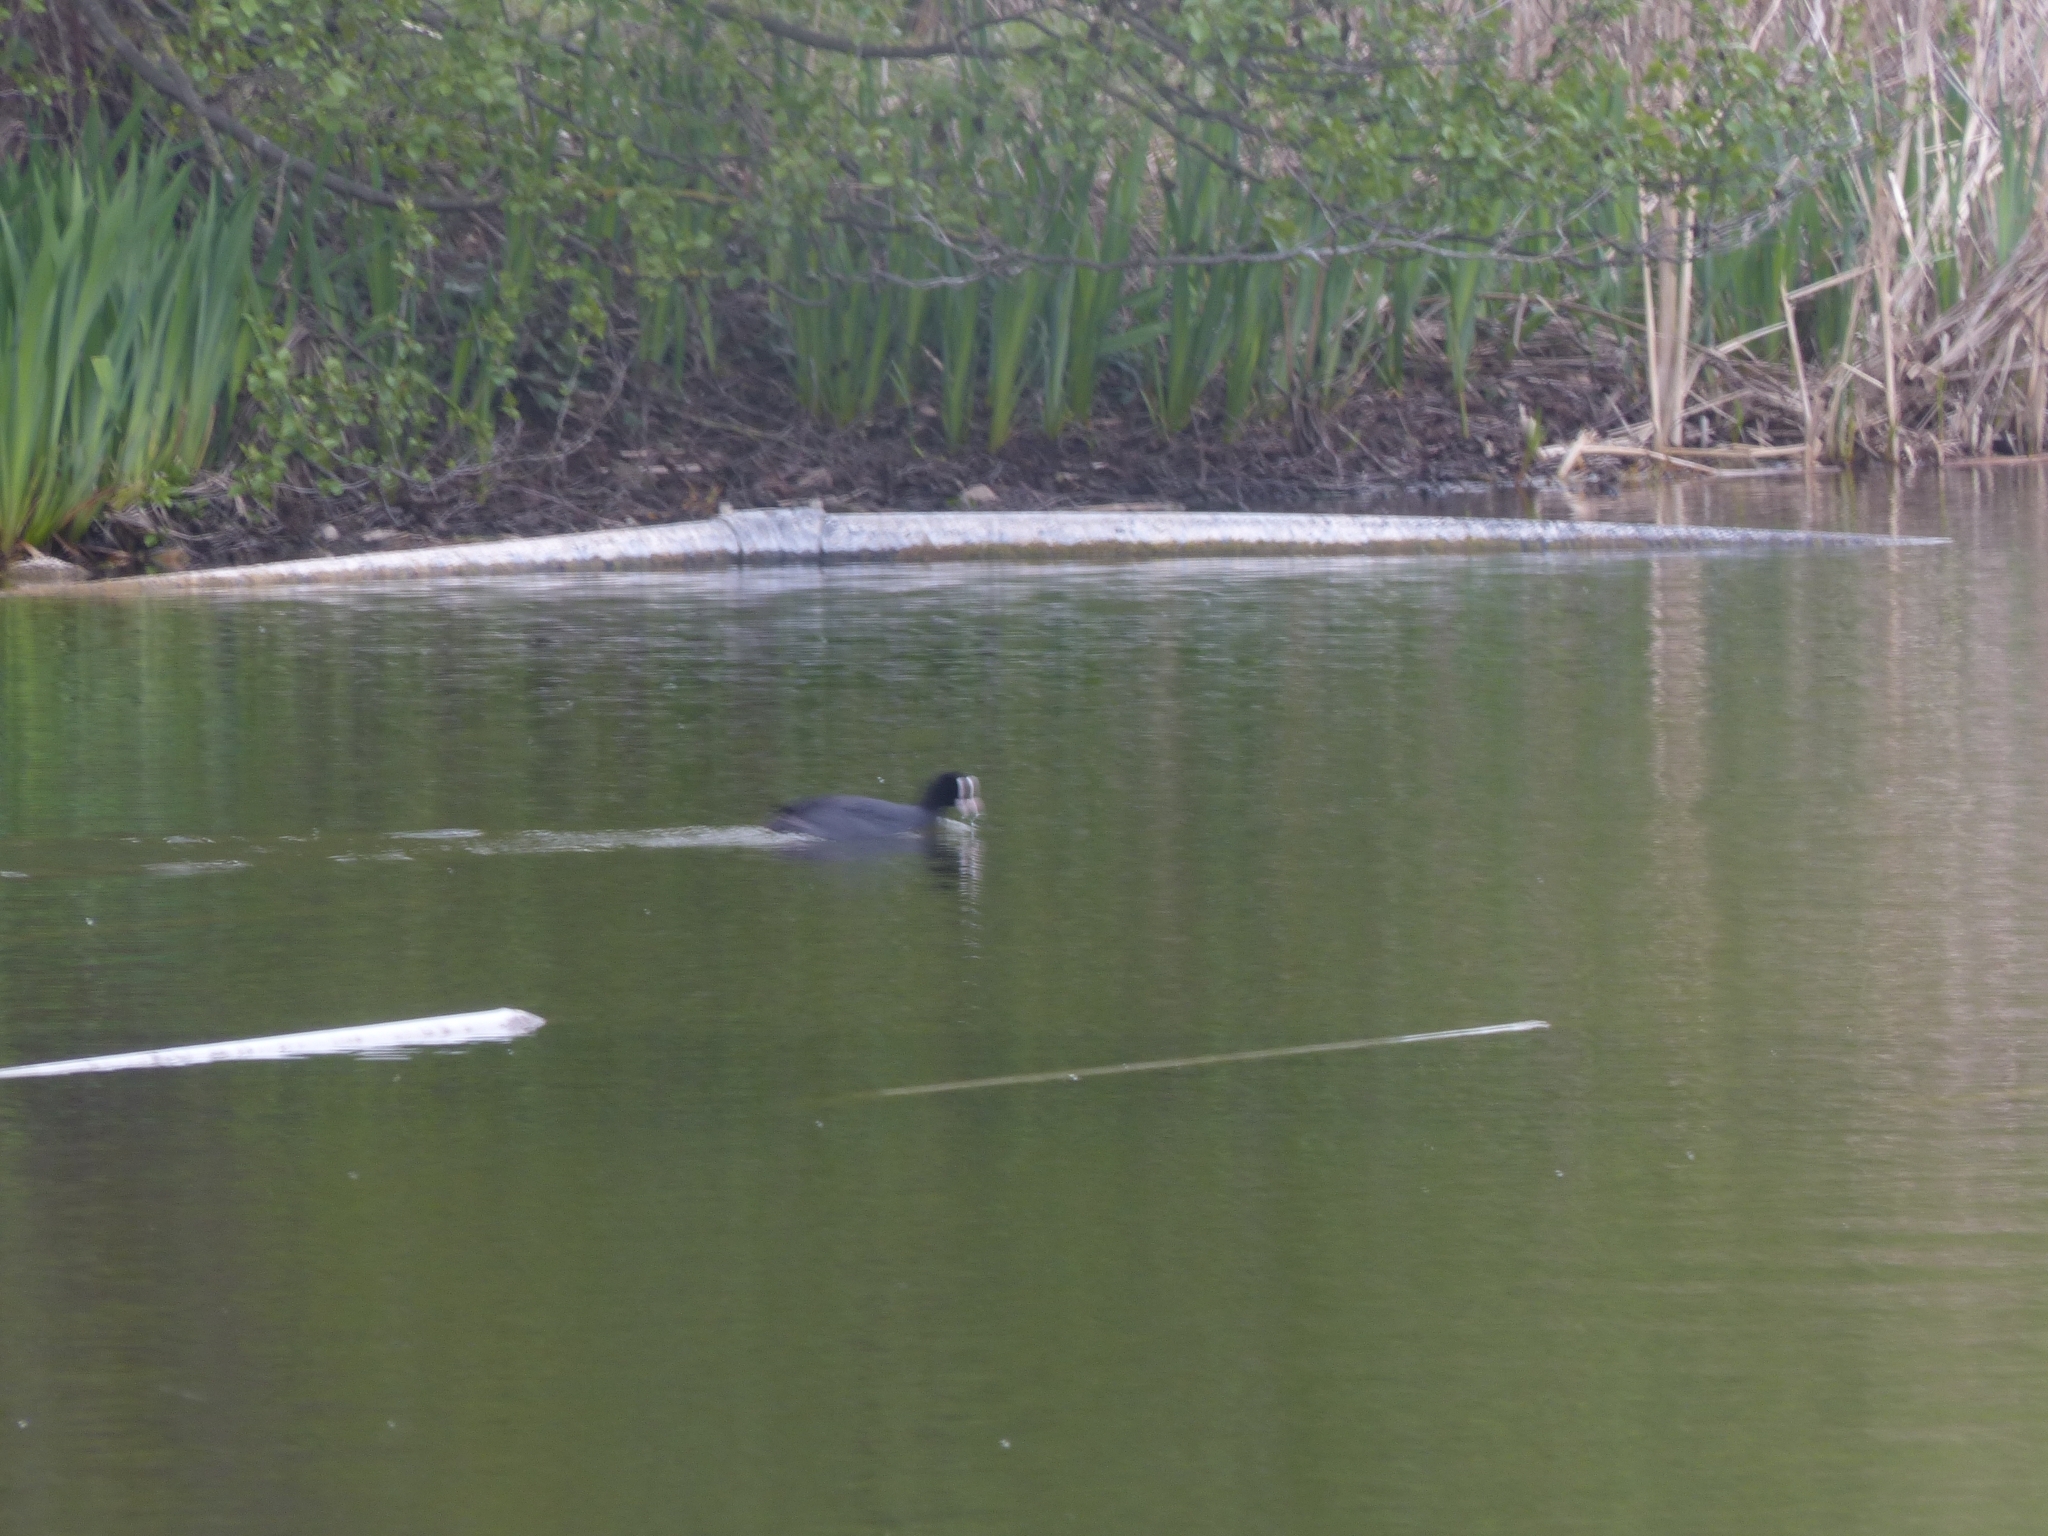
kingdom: Animalia
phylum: Chordata
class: Aves
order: Gruiformes
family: Rallidae
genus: Fulica
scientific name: Fulica atra
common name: Eurasian coot
